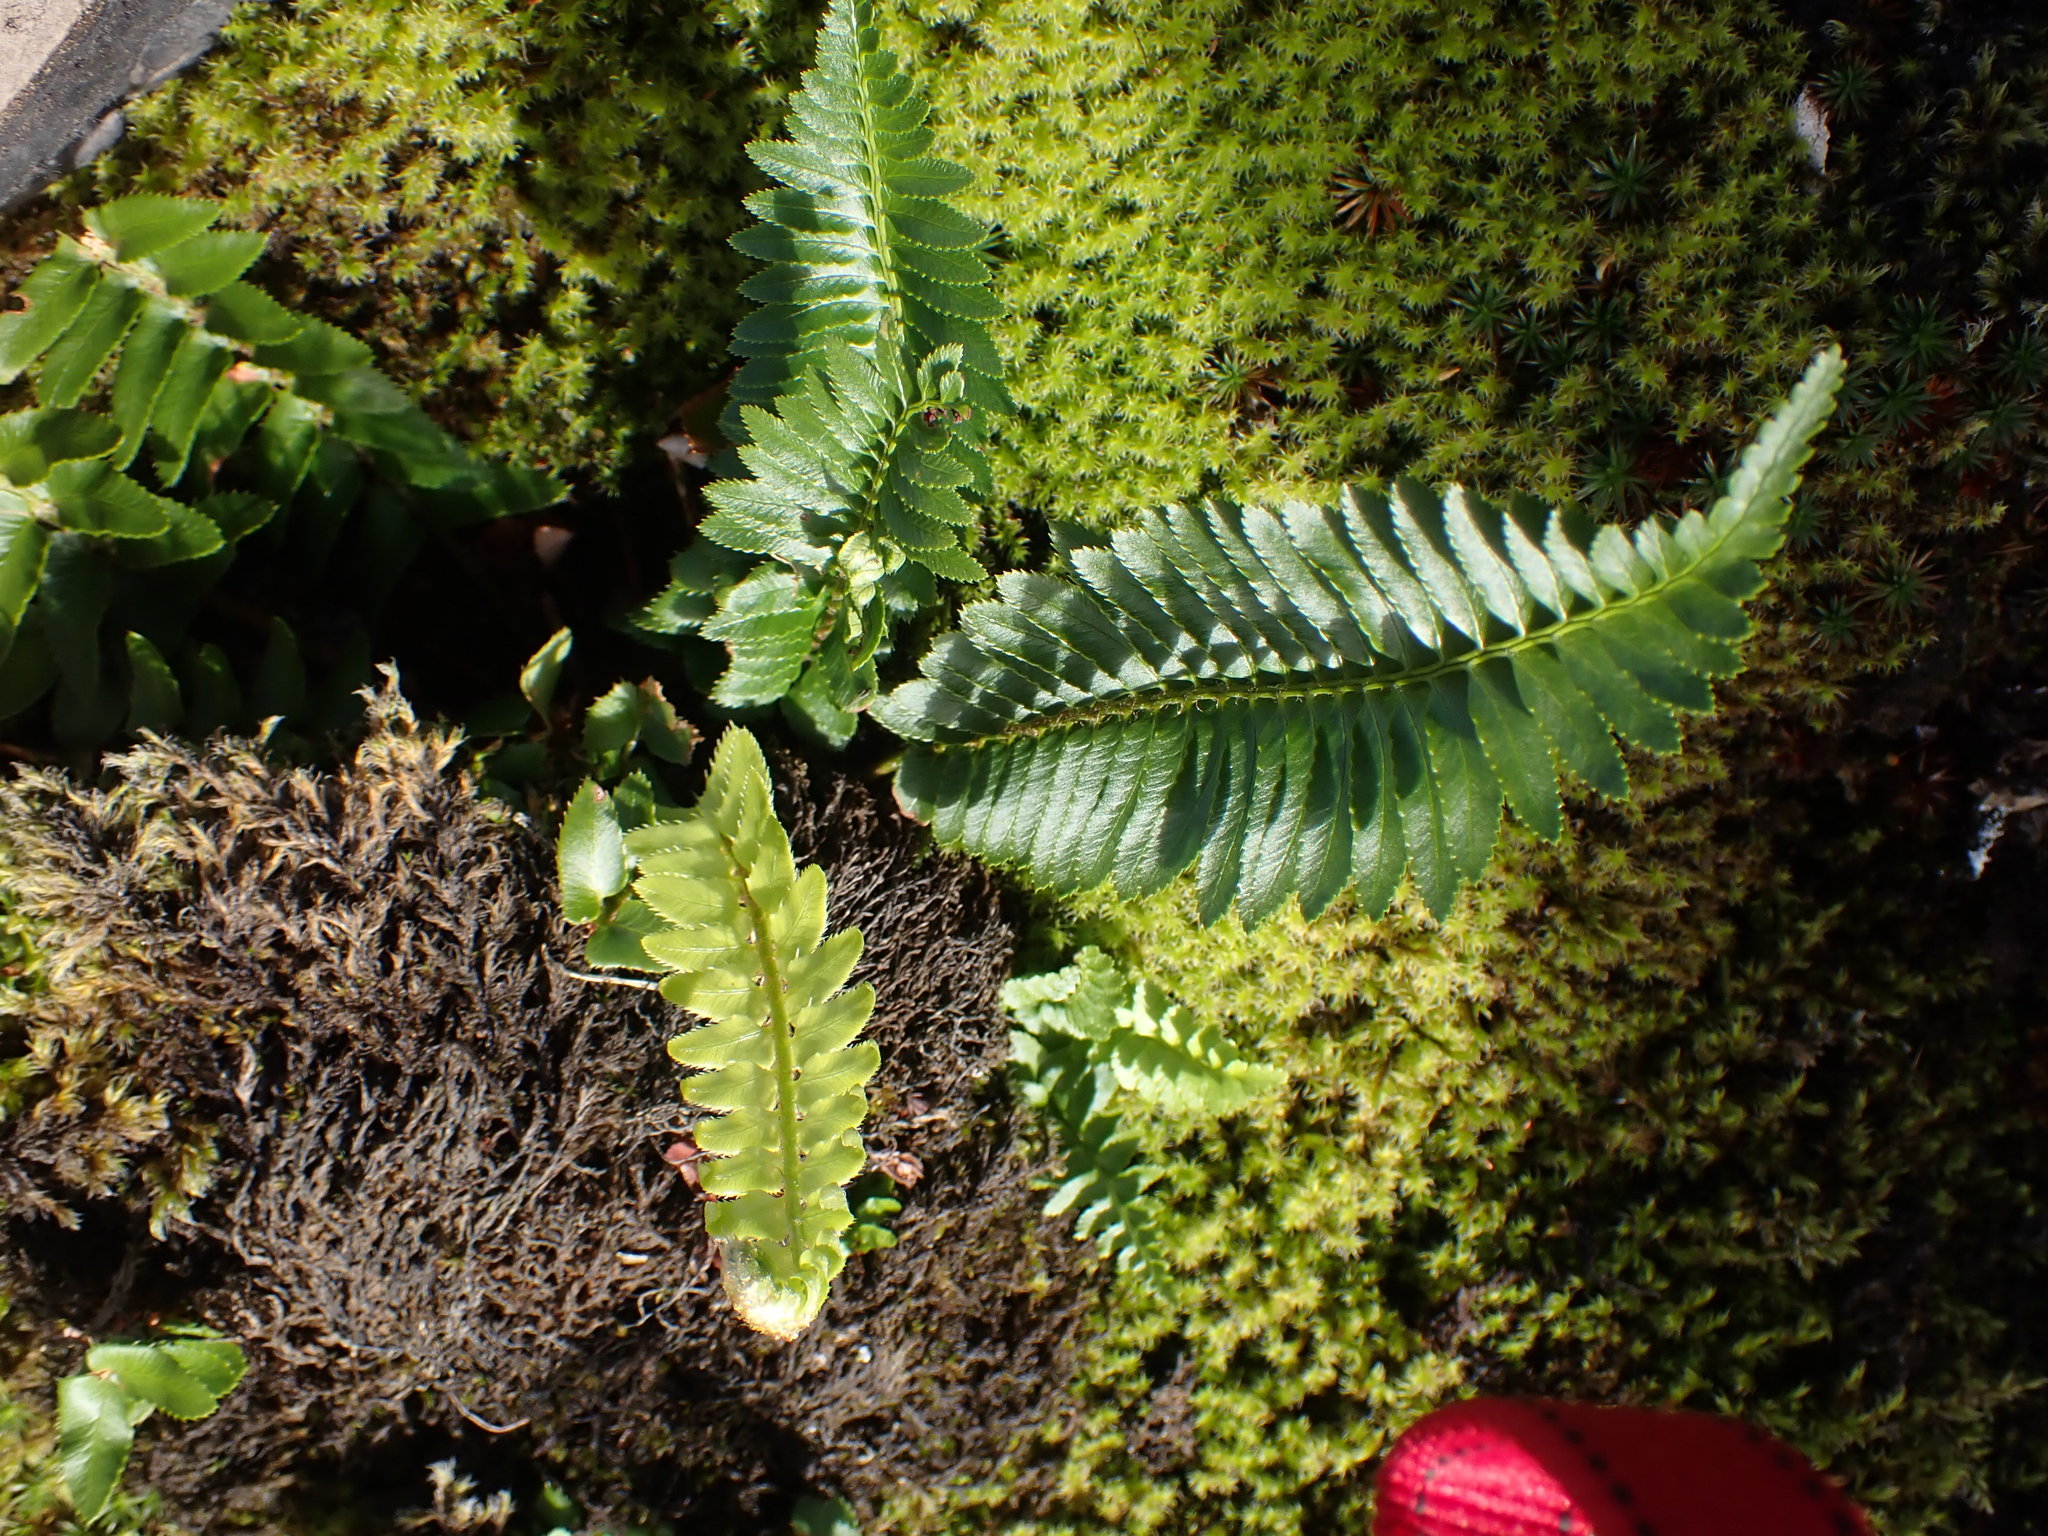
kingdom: Plantae
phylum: Tracheophyta
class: Polypodiopsida
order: Polypodiales
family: Dryopteridaceae
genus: Polystichum
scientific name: Polystichum munitum
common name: Western sword-fern
